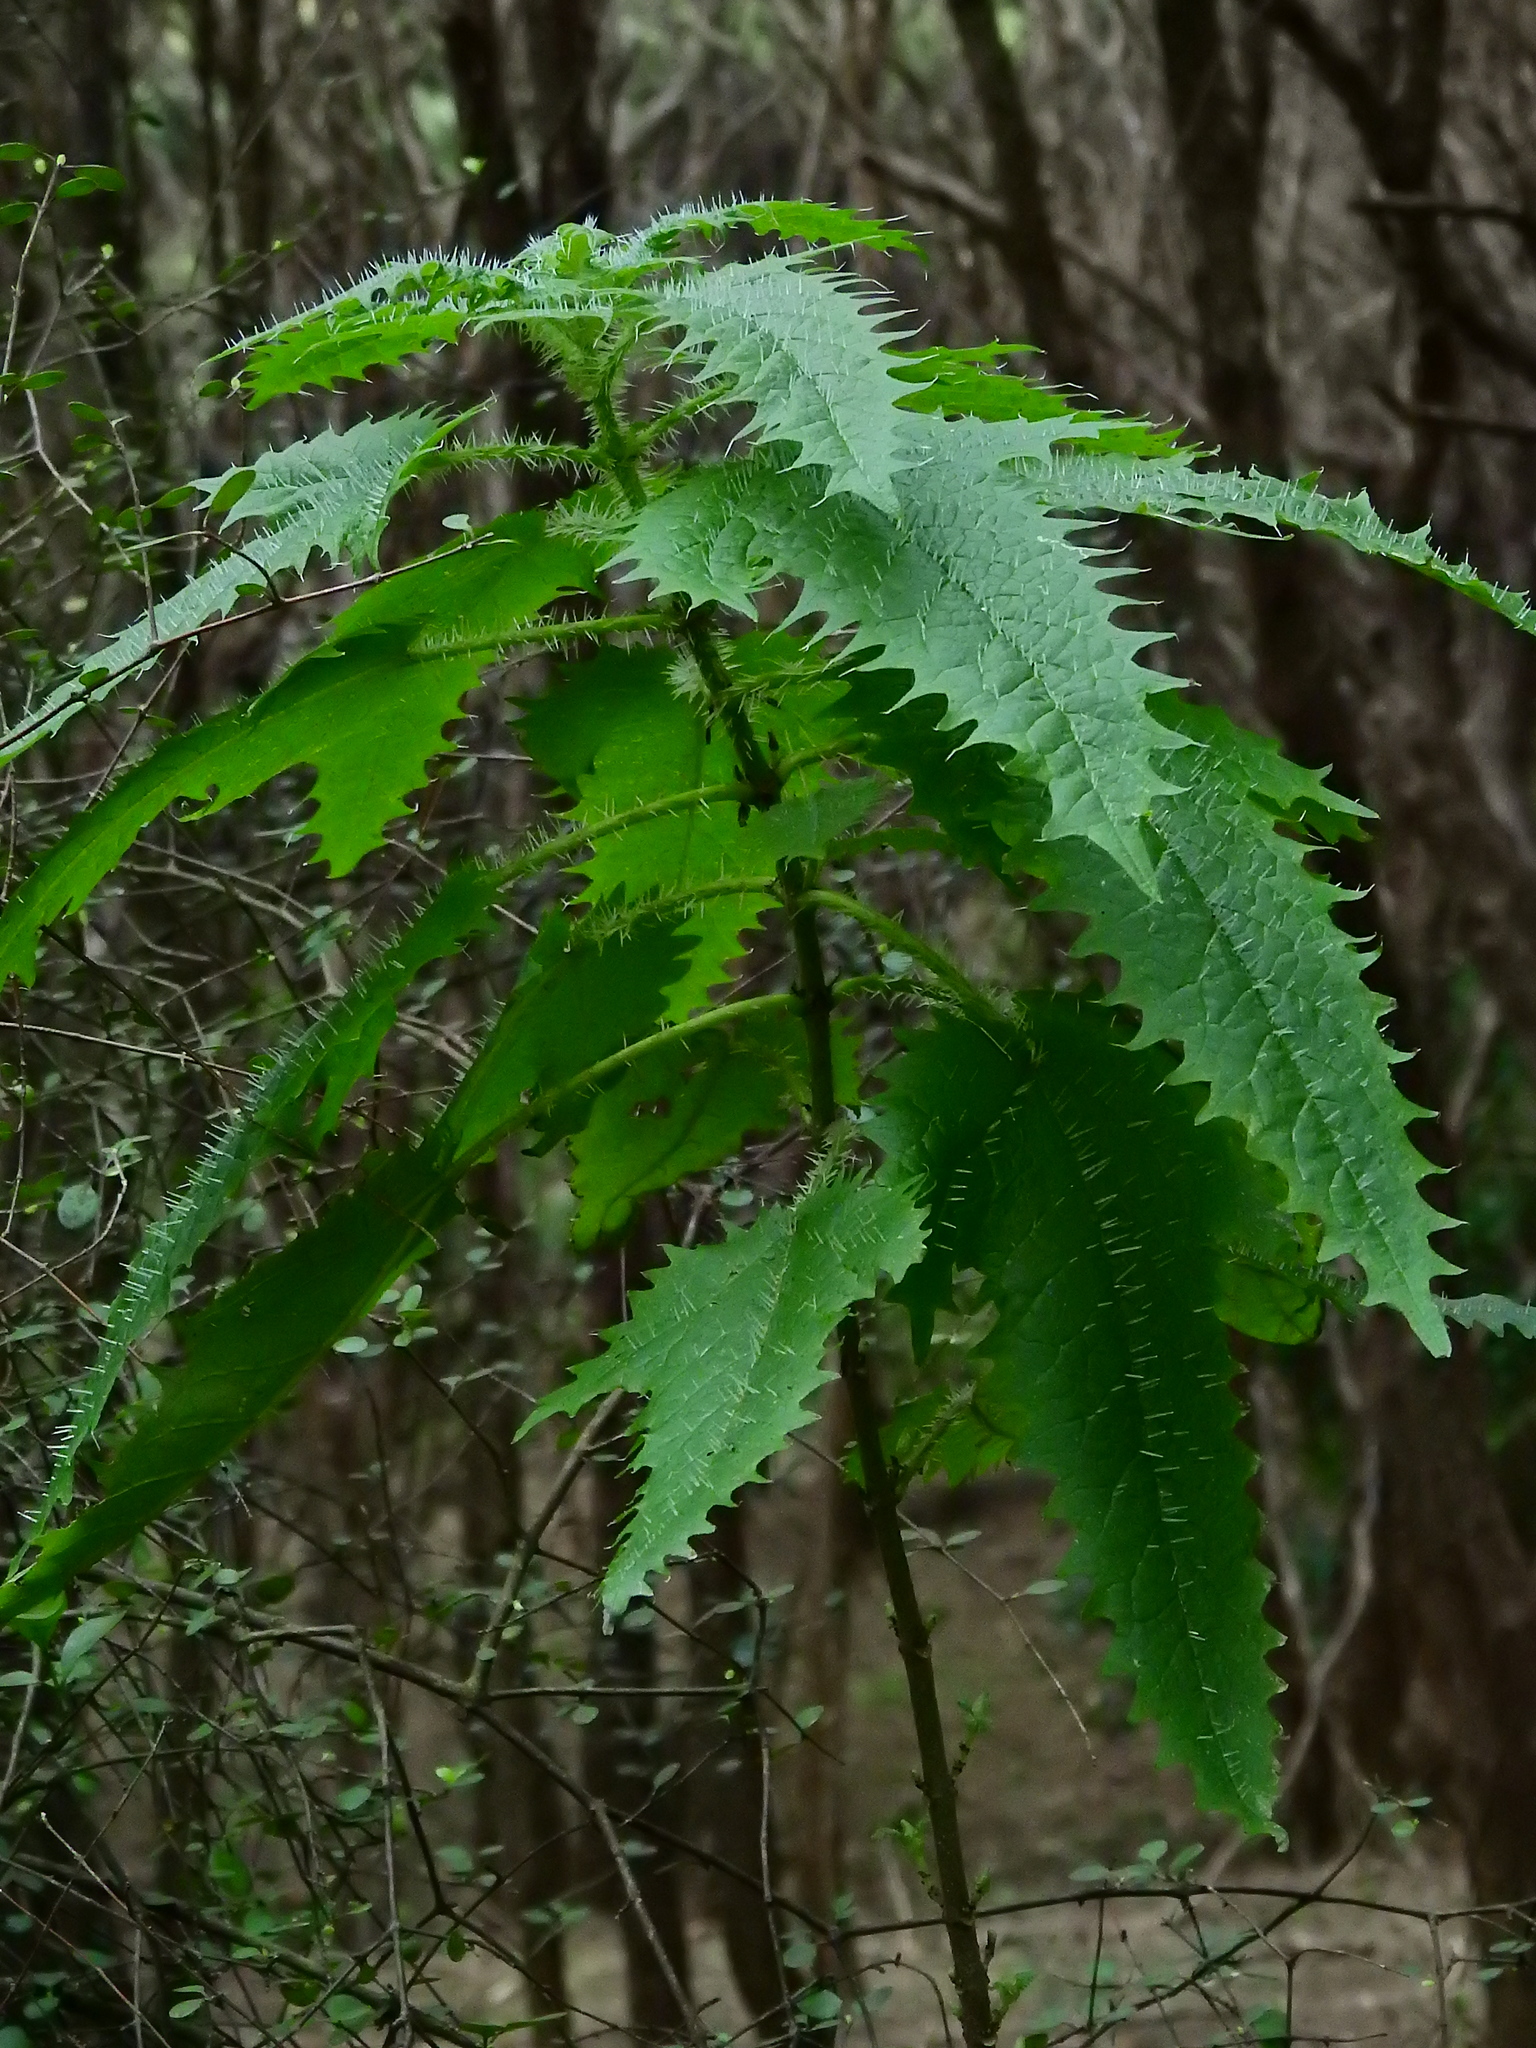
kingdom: Plantae
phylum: Tracheophyta
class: Magnoliopsida
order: Rosales
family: Urticaceae
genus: Urtica
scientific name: Urtica ferox
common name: Tree nettle
